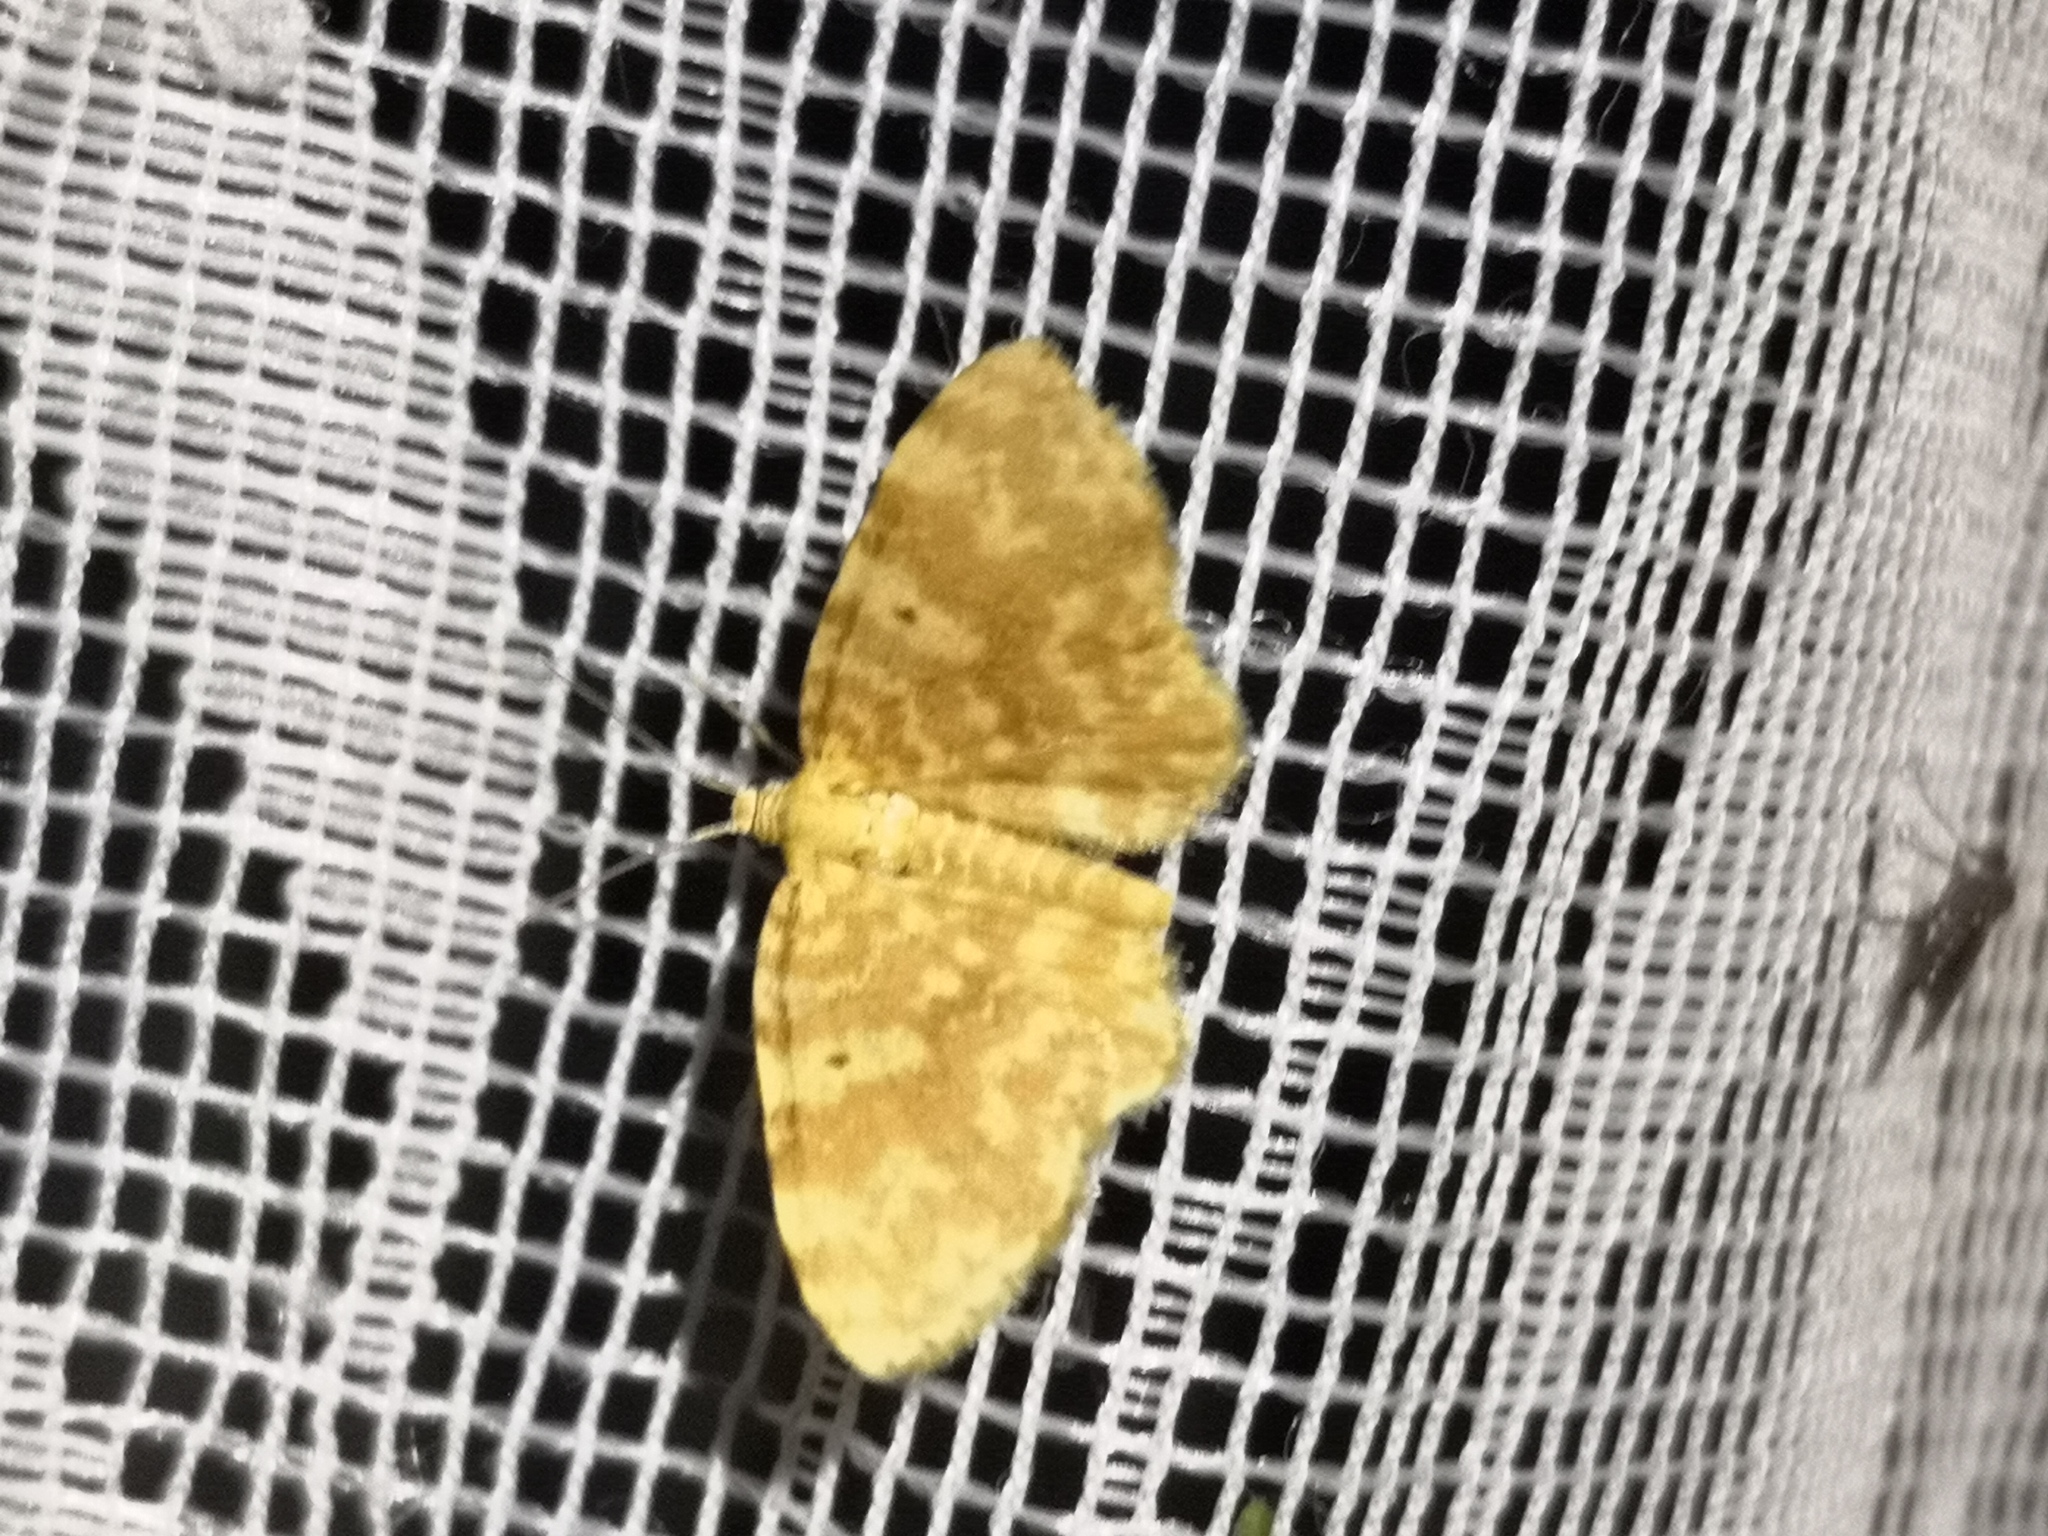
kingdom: Animalia
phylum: Arthropoda
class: Insecta
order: Lepidoptera
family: Geometridae
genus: Hydrelia
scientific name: Hydrelia flammeolaria
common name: Small yellow wave
